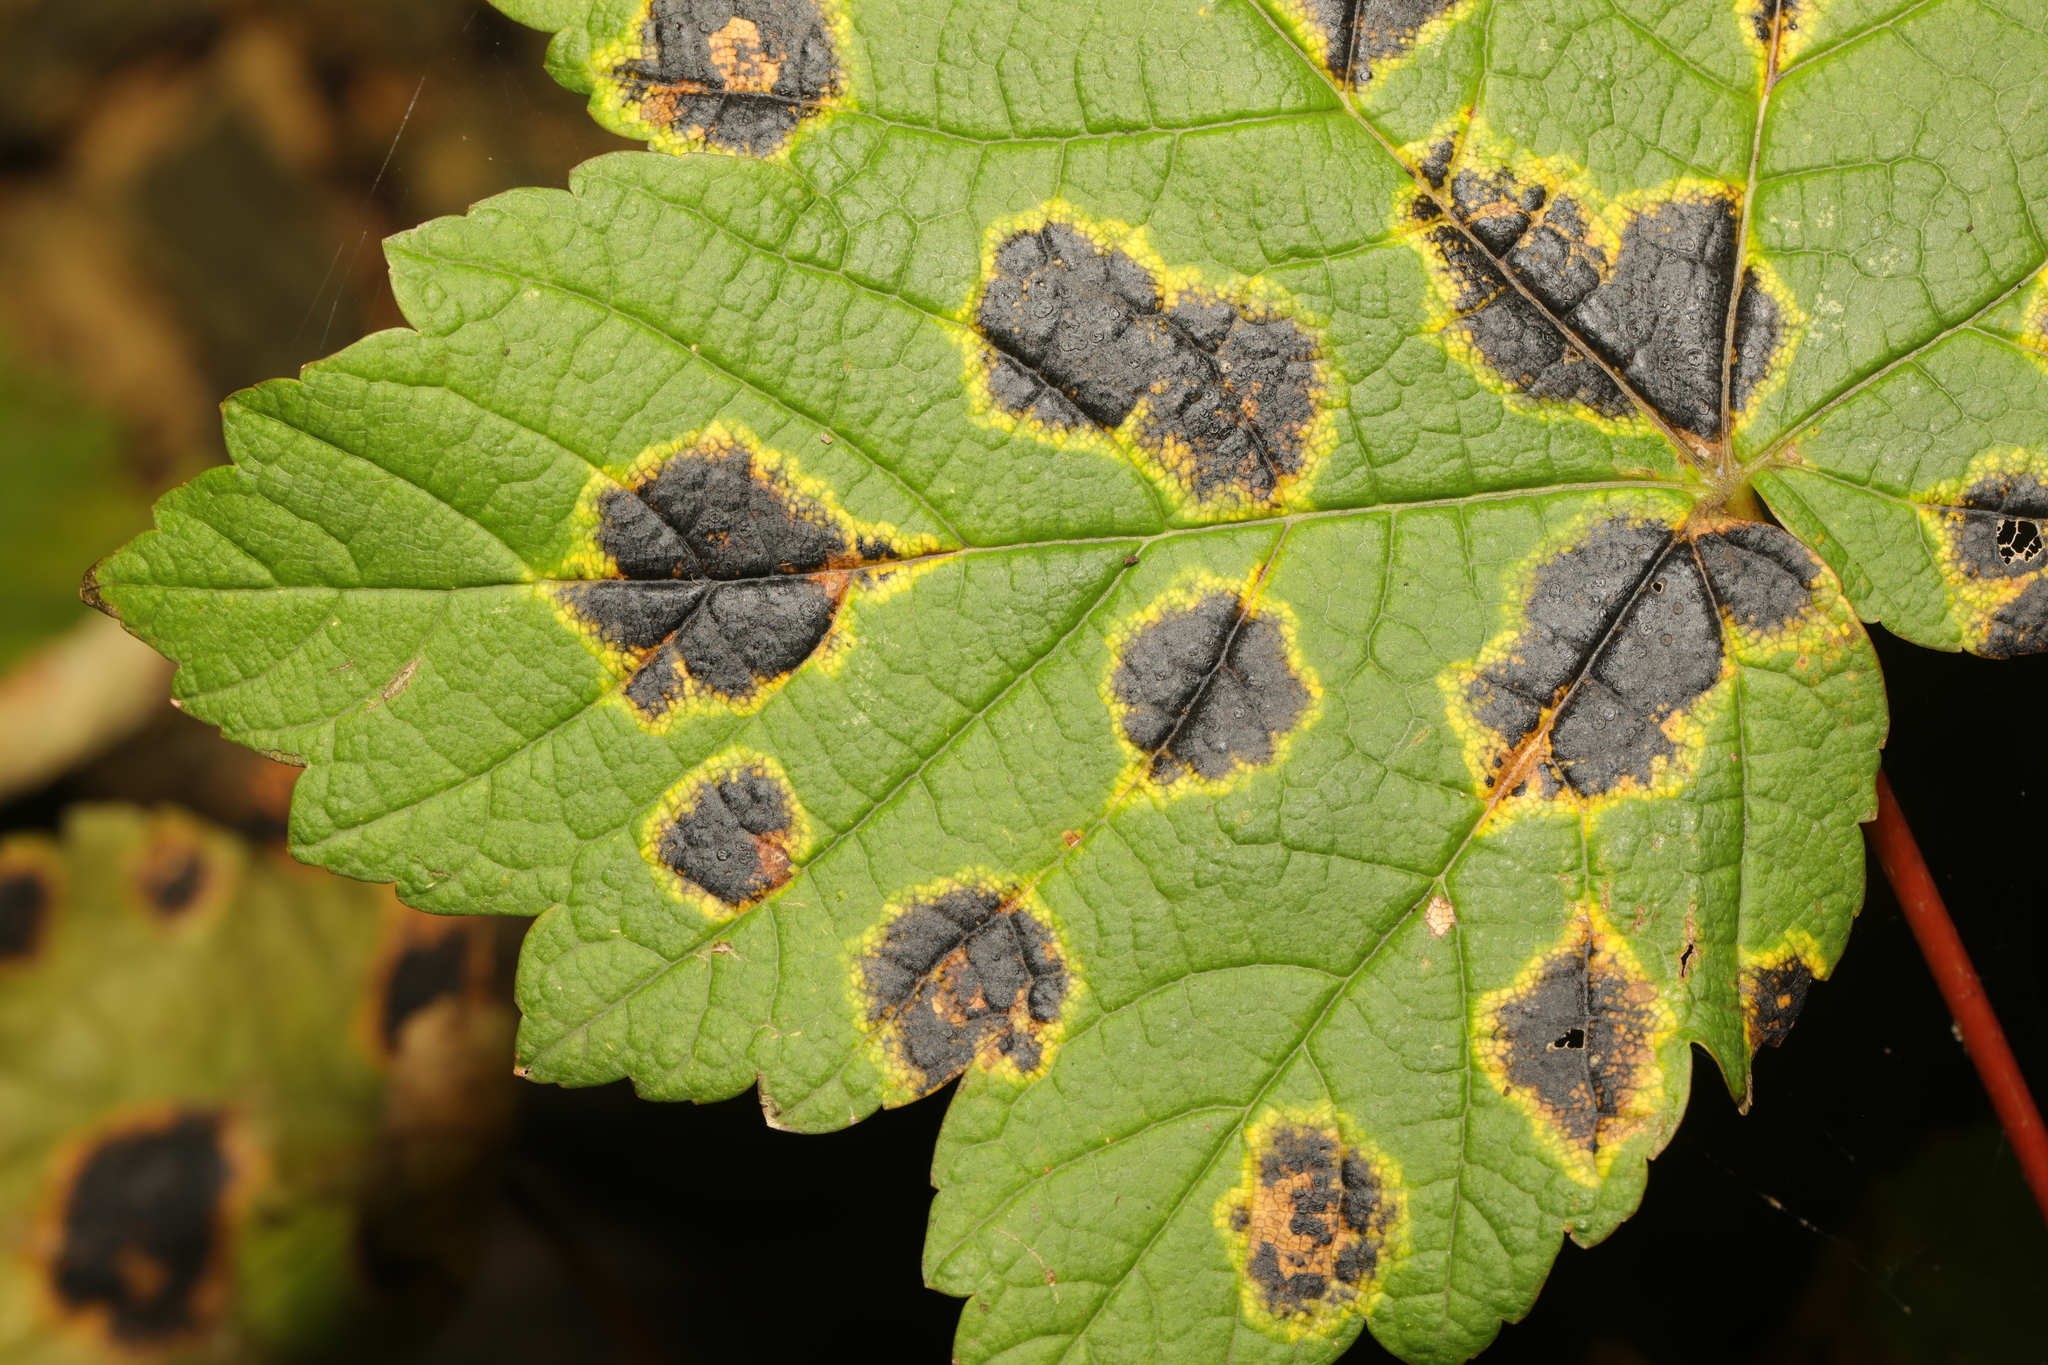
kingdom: Fungi
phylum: Ascomycota
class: Leotiomycetes
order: Rhytismatales
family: Rhytismataceae
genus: Rhytisma
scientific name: Rhytisma acerinum
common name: European tar spot
